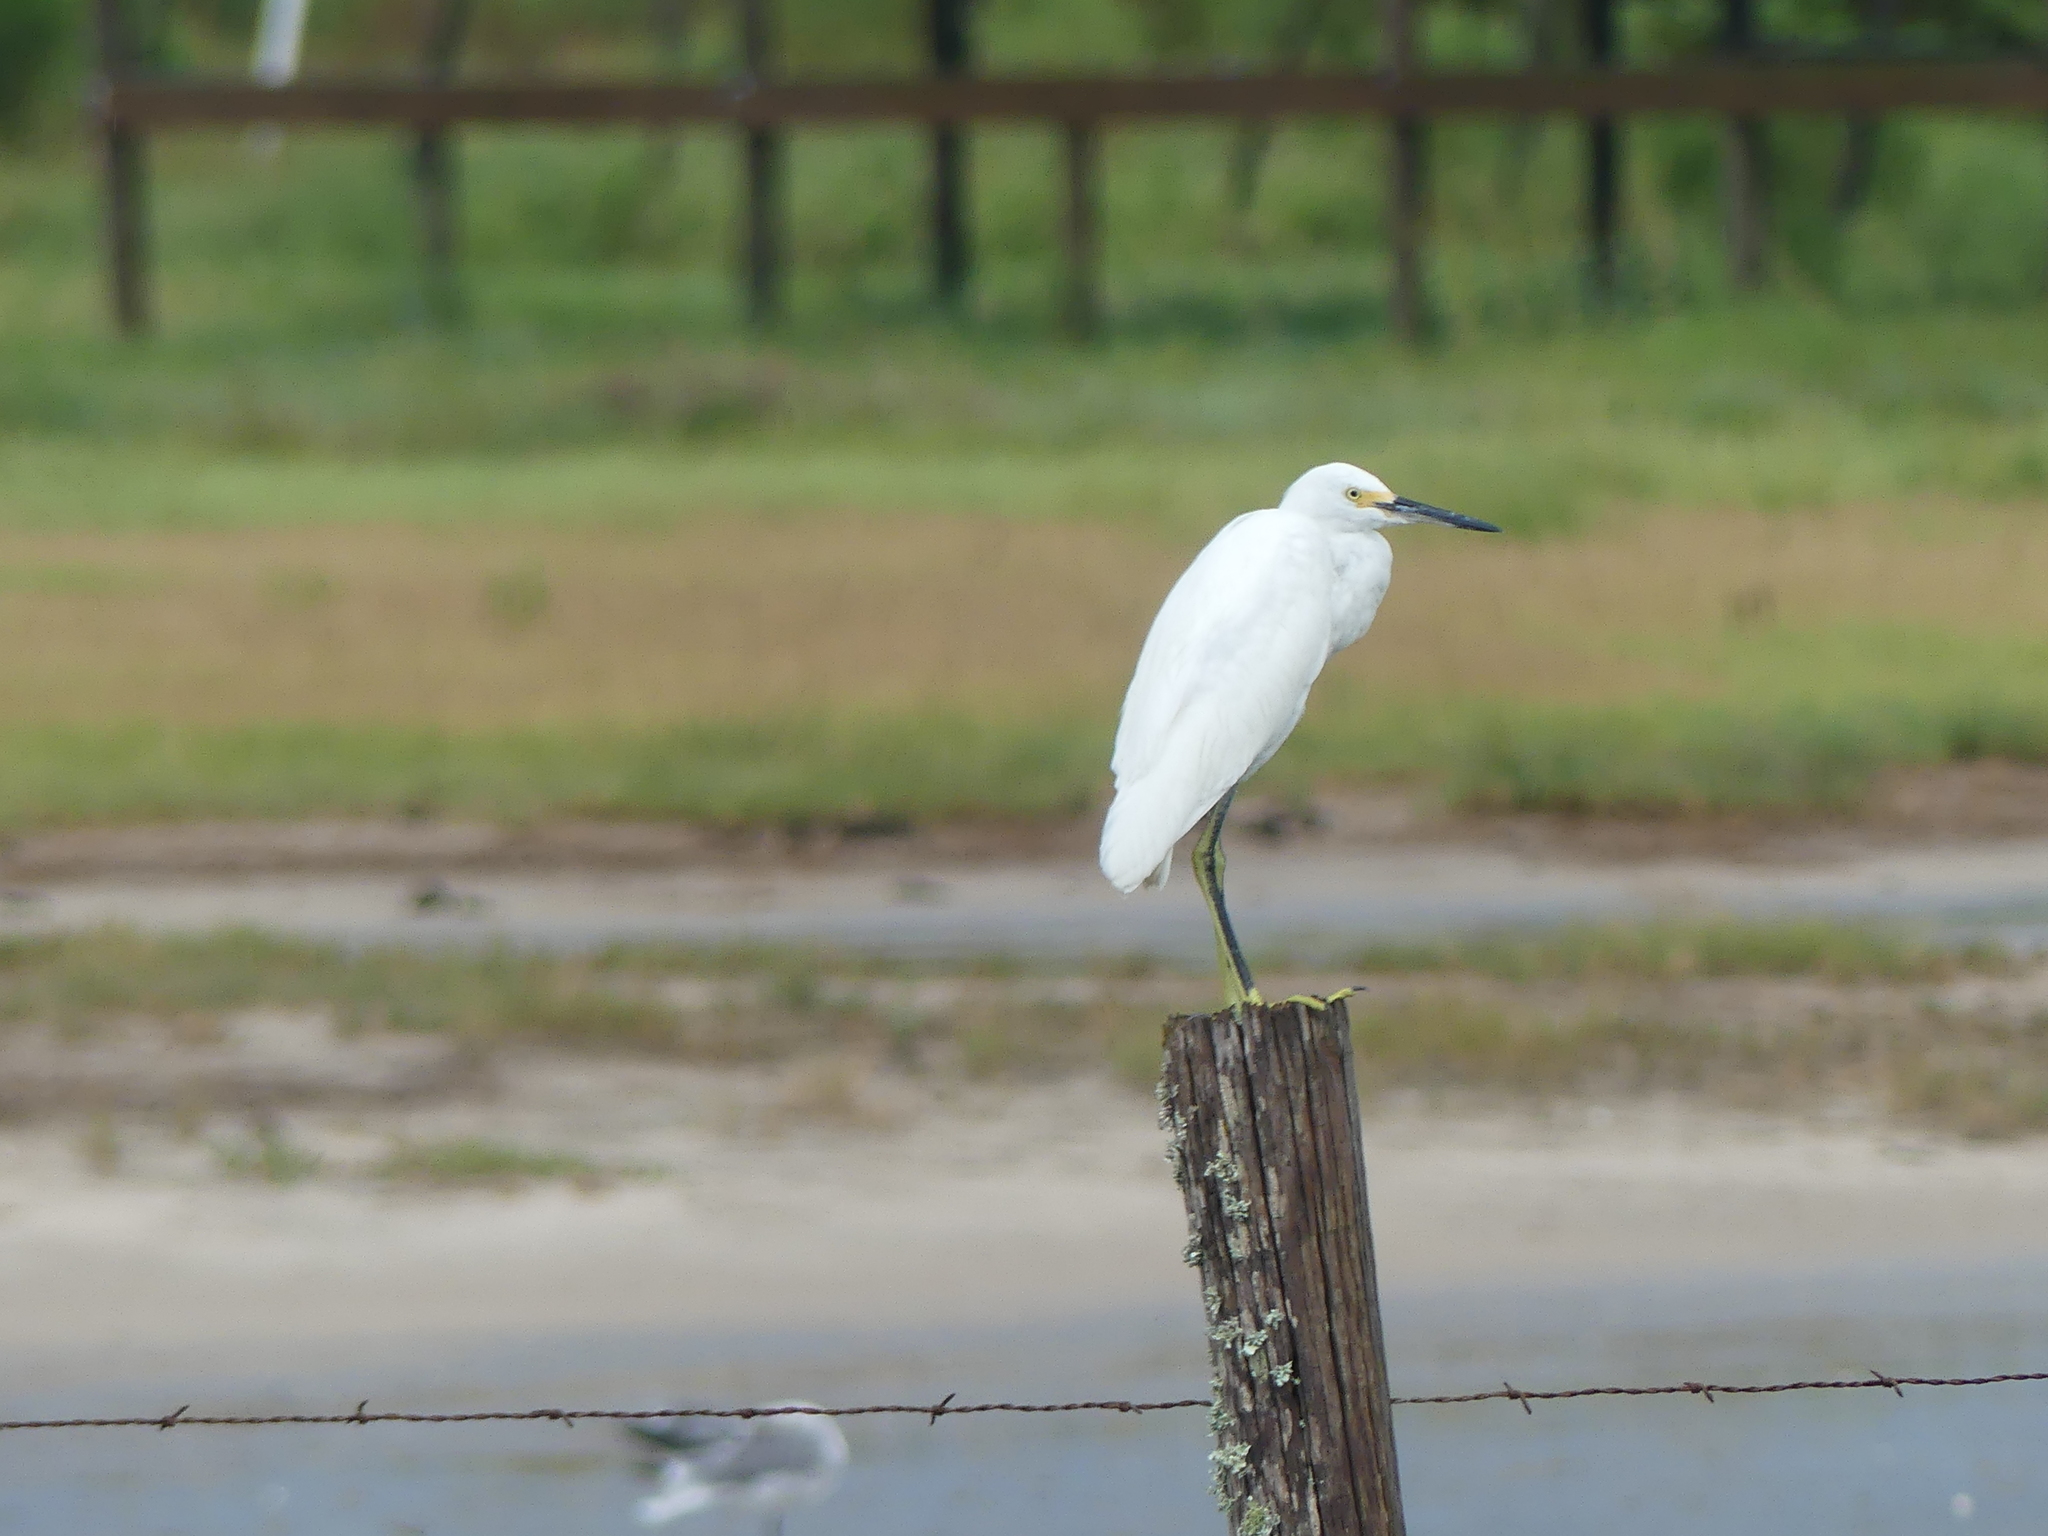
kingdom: Animalia
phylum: Chordata
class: Aves
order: Pelecaniformes
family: Ardeidae
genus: Egretta
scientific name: Egretta thula
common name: Snowy egret
